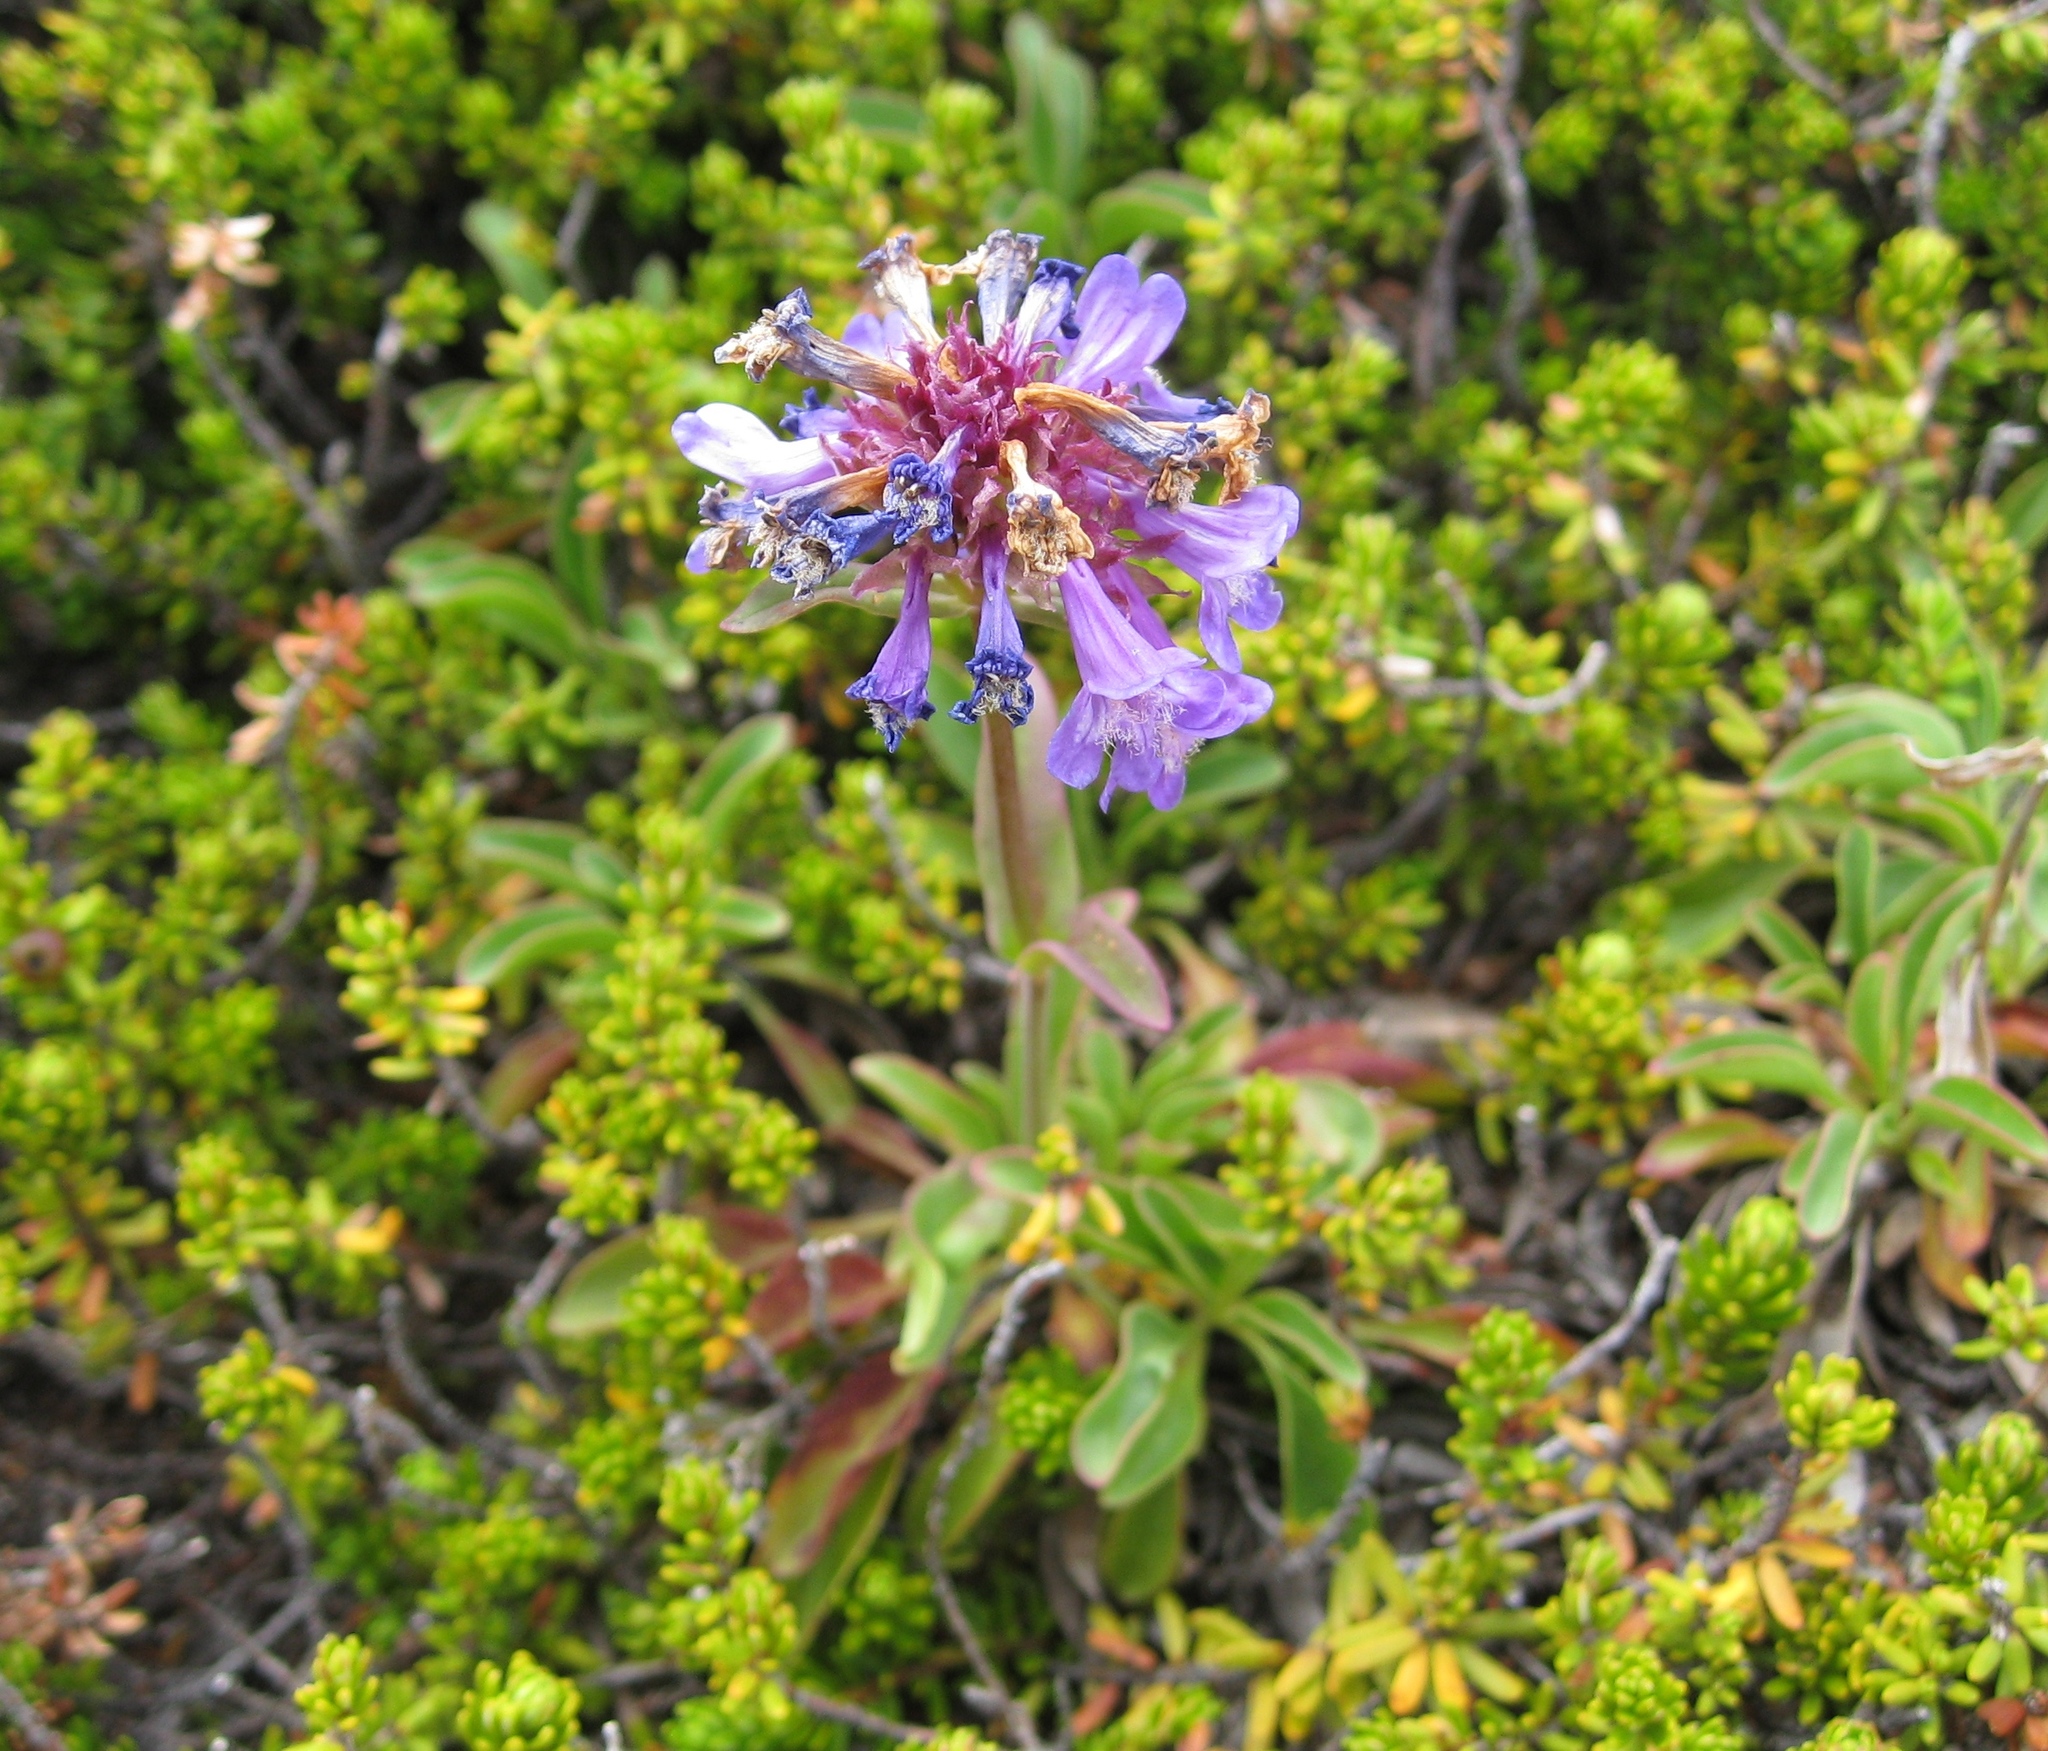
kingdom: Plantae
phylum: Tracheophyta
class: Magnoliopsida
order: Lamiales
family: Plantaginaceae
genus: Penstemon
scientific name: Penstemon procerus
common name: Small-flower penstemon
